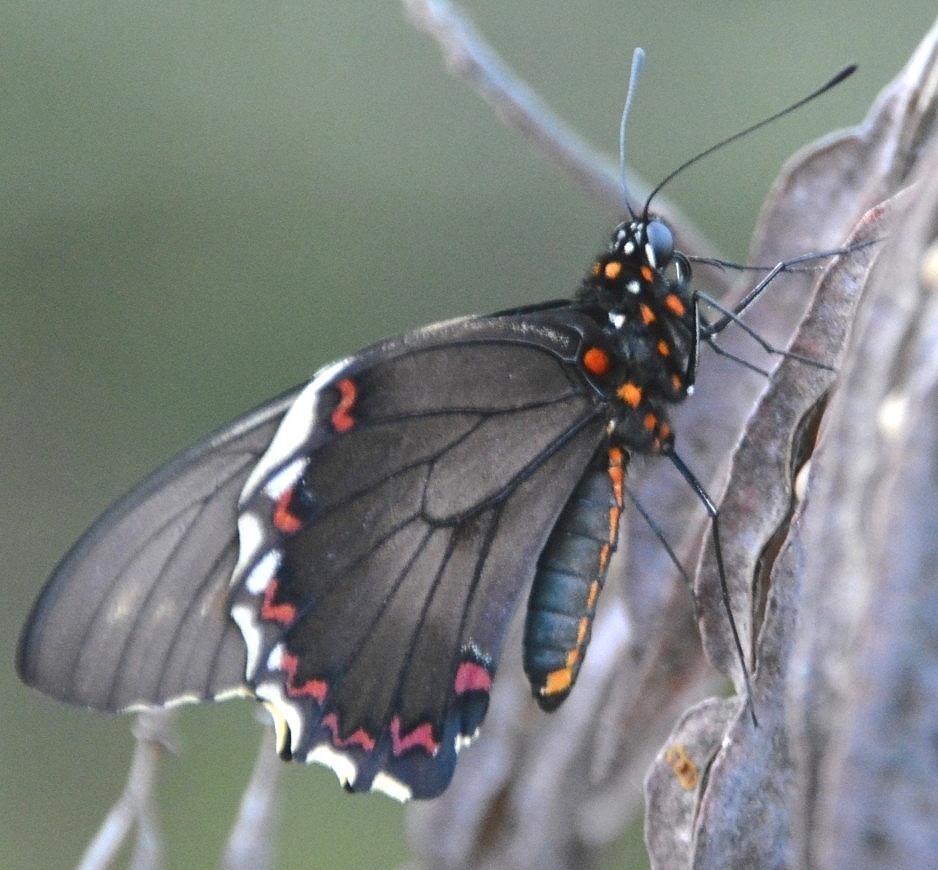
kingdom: Animalia
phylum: Arthropoda
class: Insecta
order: Lepidoptera
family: Papilionidae
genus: Battus
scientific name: Battus polydamas
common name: Polydamas swallowtail
